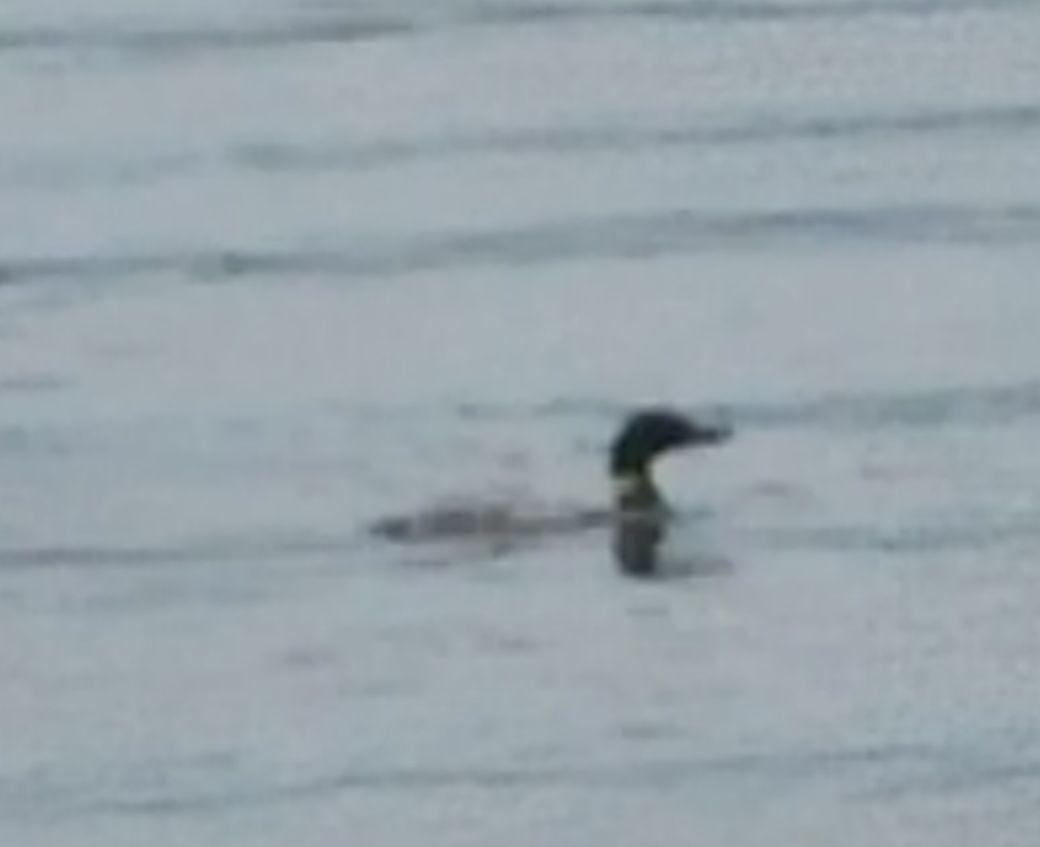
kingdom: Animalia
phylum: Chordata
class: Aves
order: Gaviiformes
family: Gaviidae
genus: Gavia
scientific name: Gavia immer
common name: Common loon
